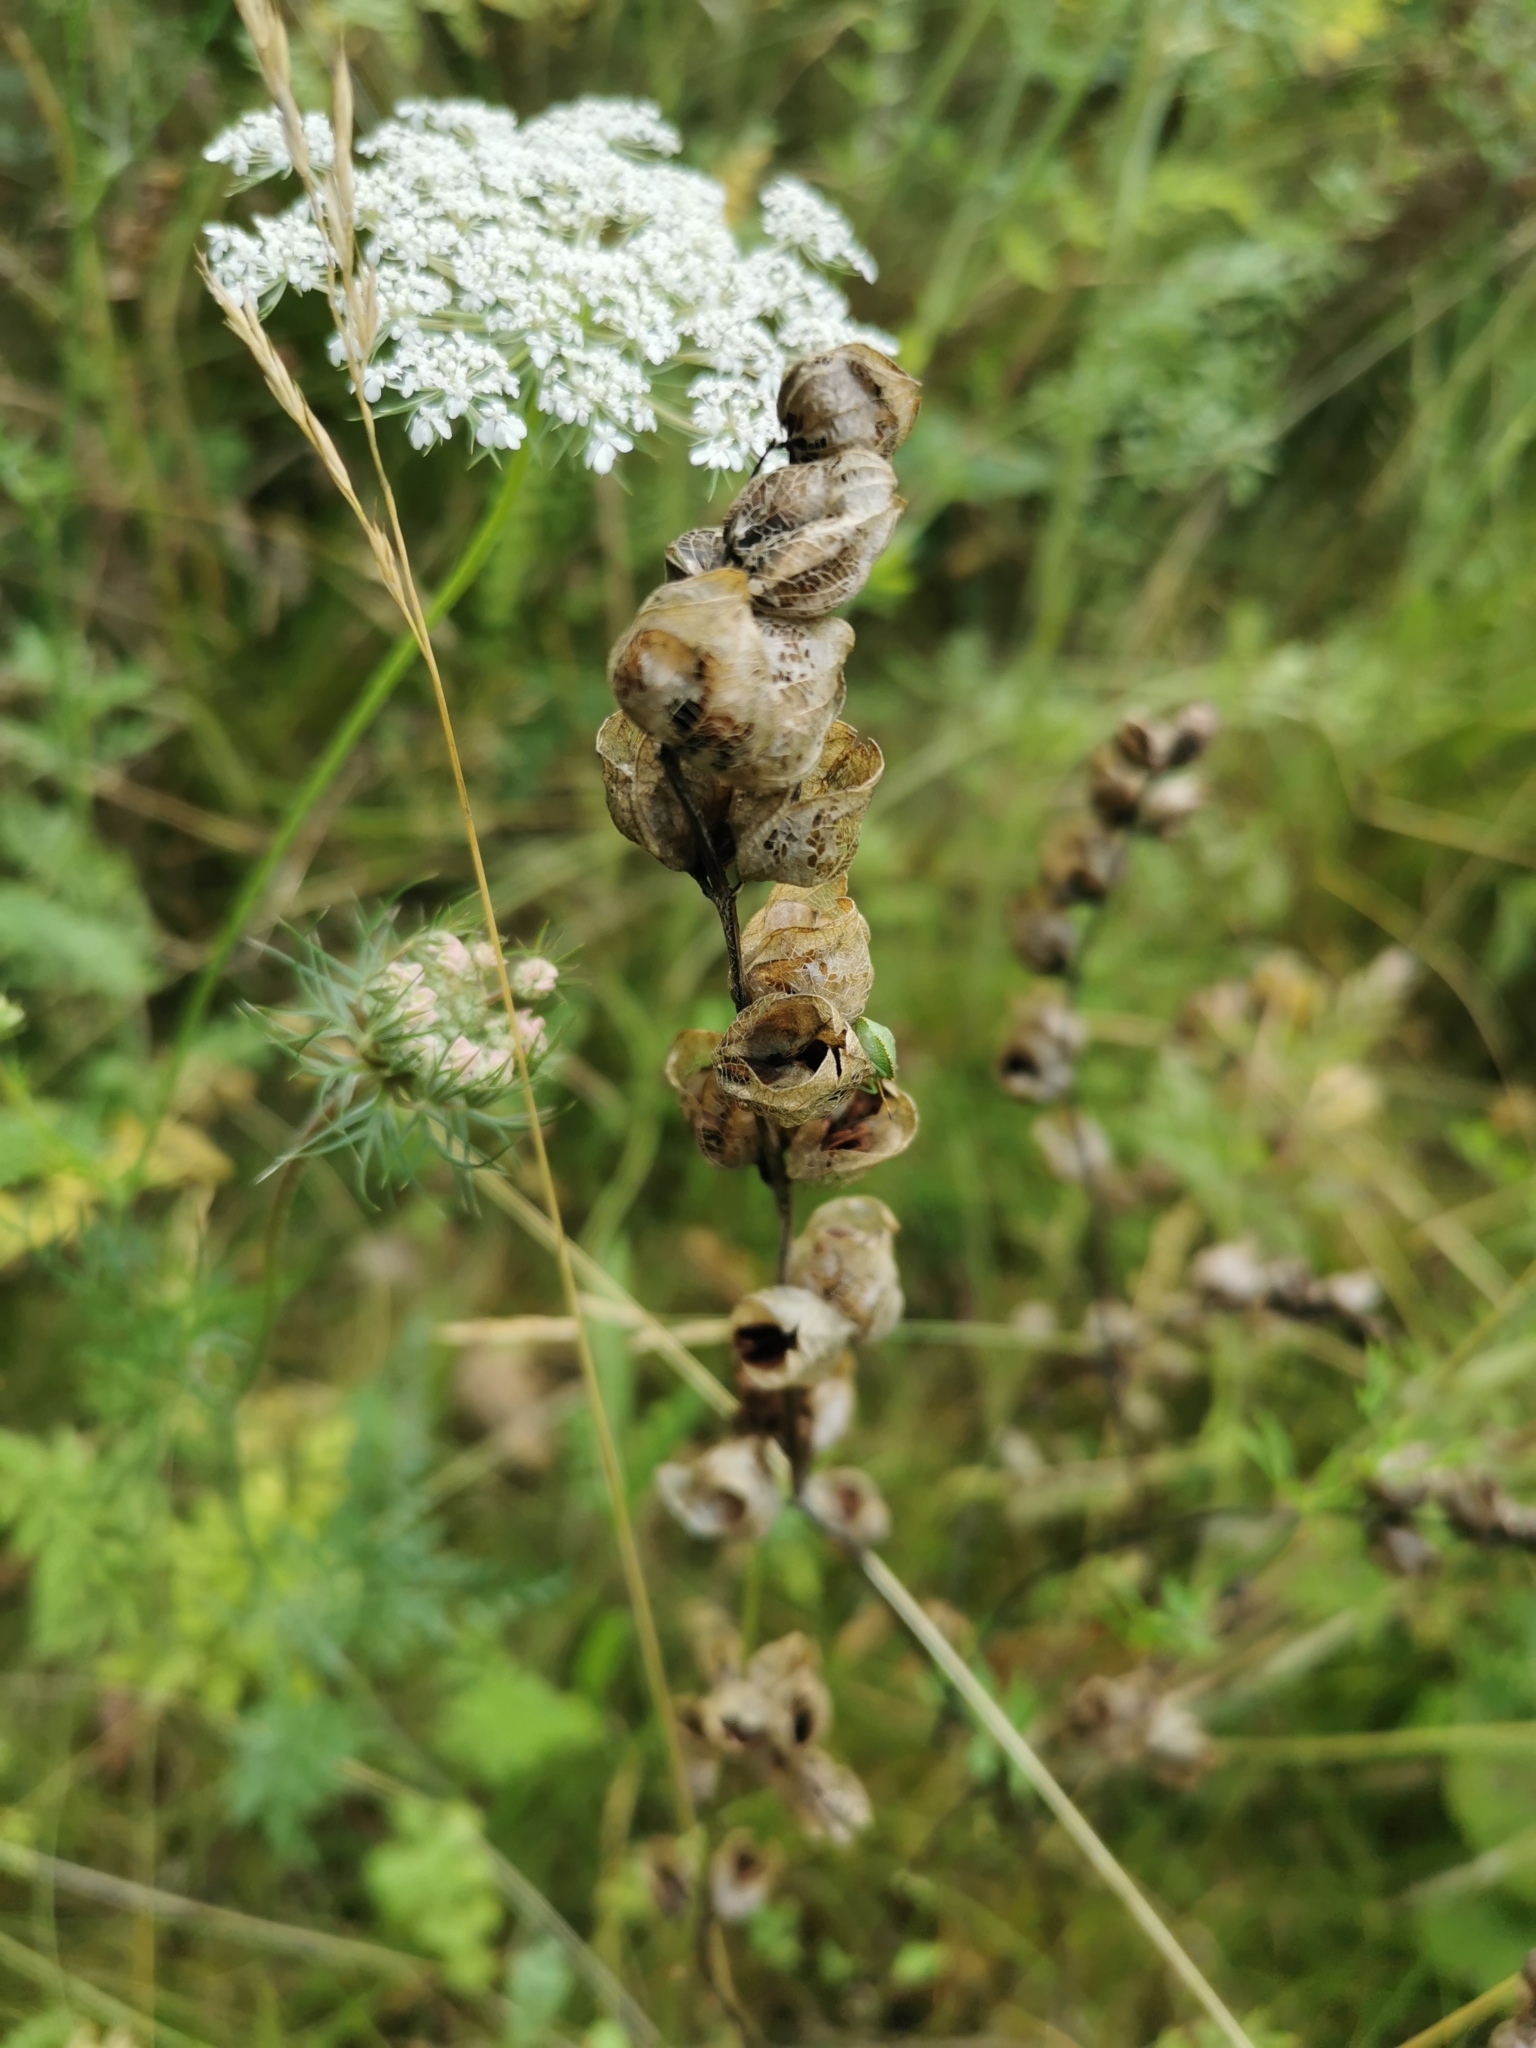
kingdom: Plantae
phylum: Tracheophyta
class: Magnoliopsida
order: Lamiales
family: Orobanchaceae
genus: Rhinanthus
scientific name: Rhinanthus minor
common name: Yellow-rattle
